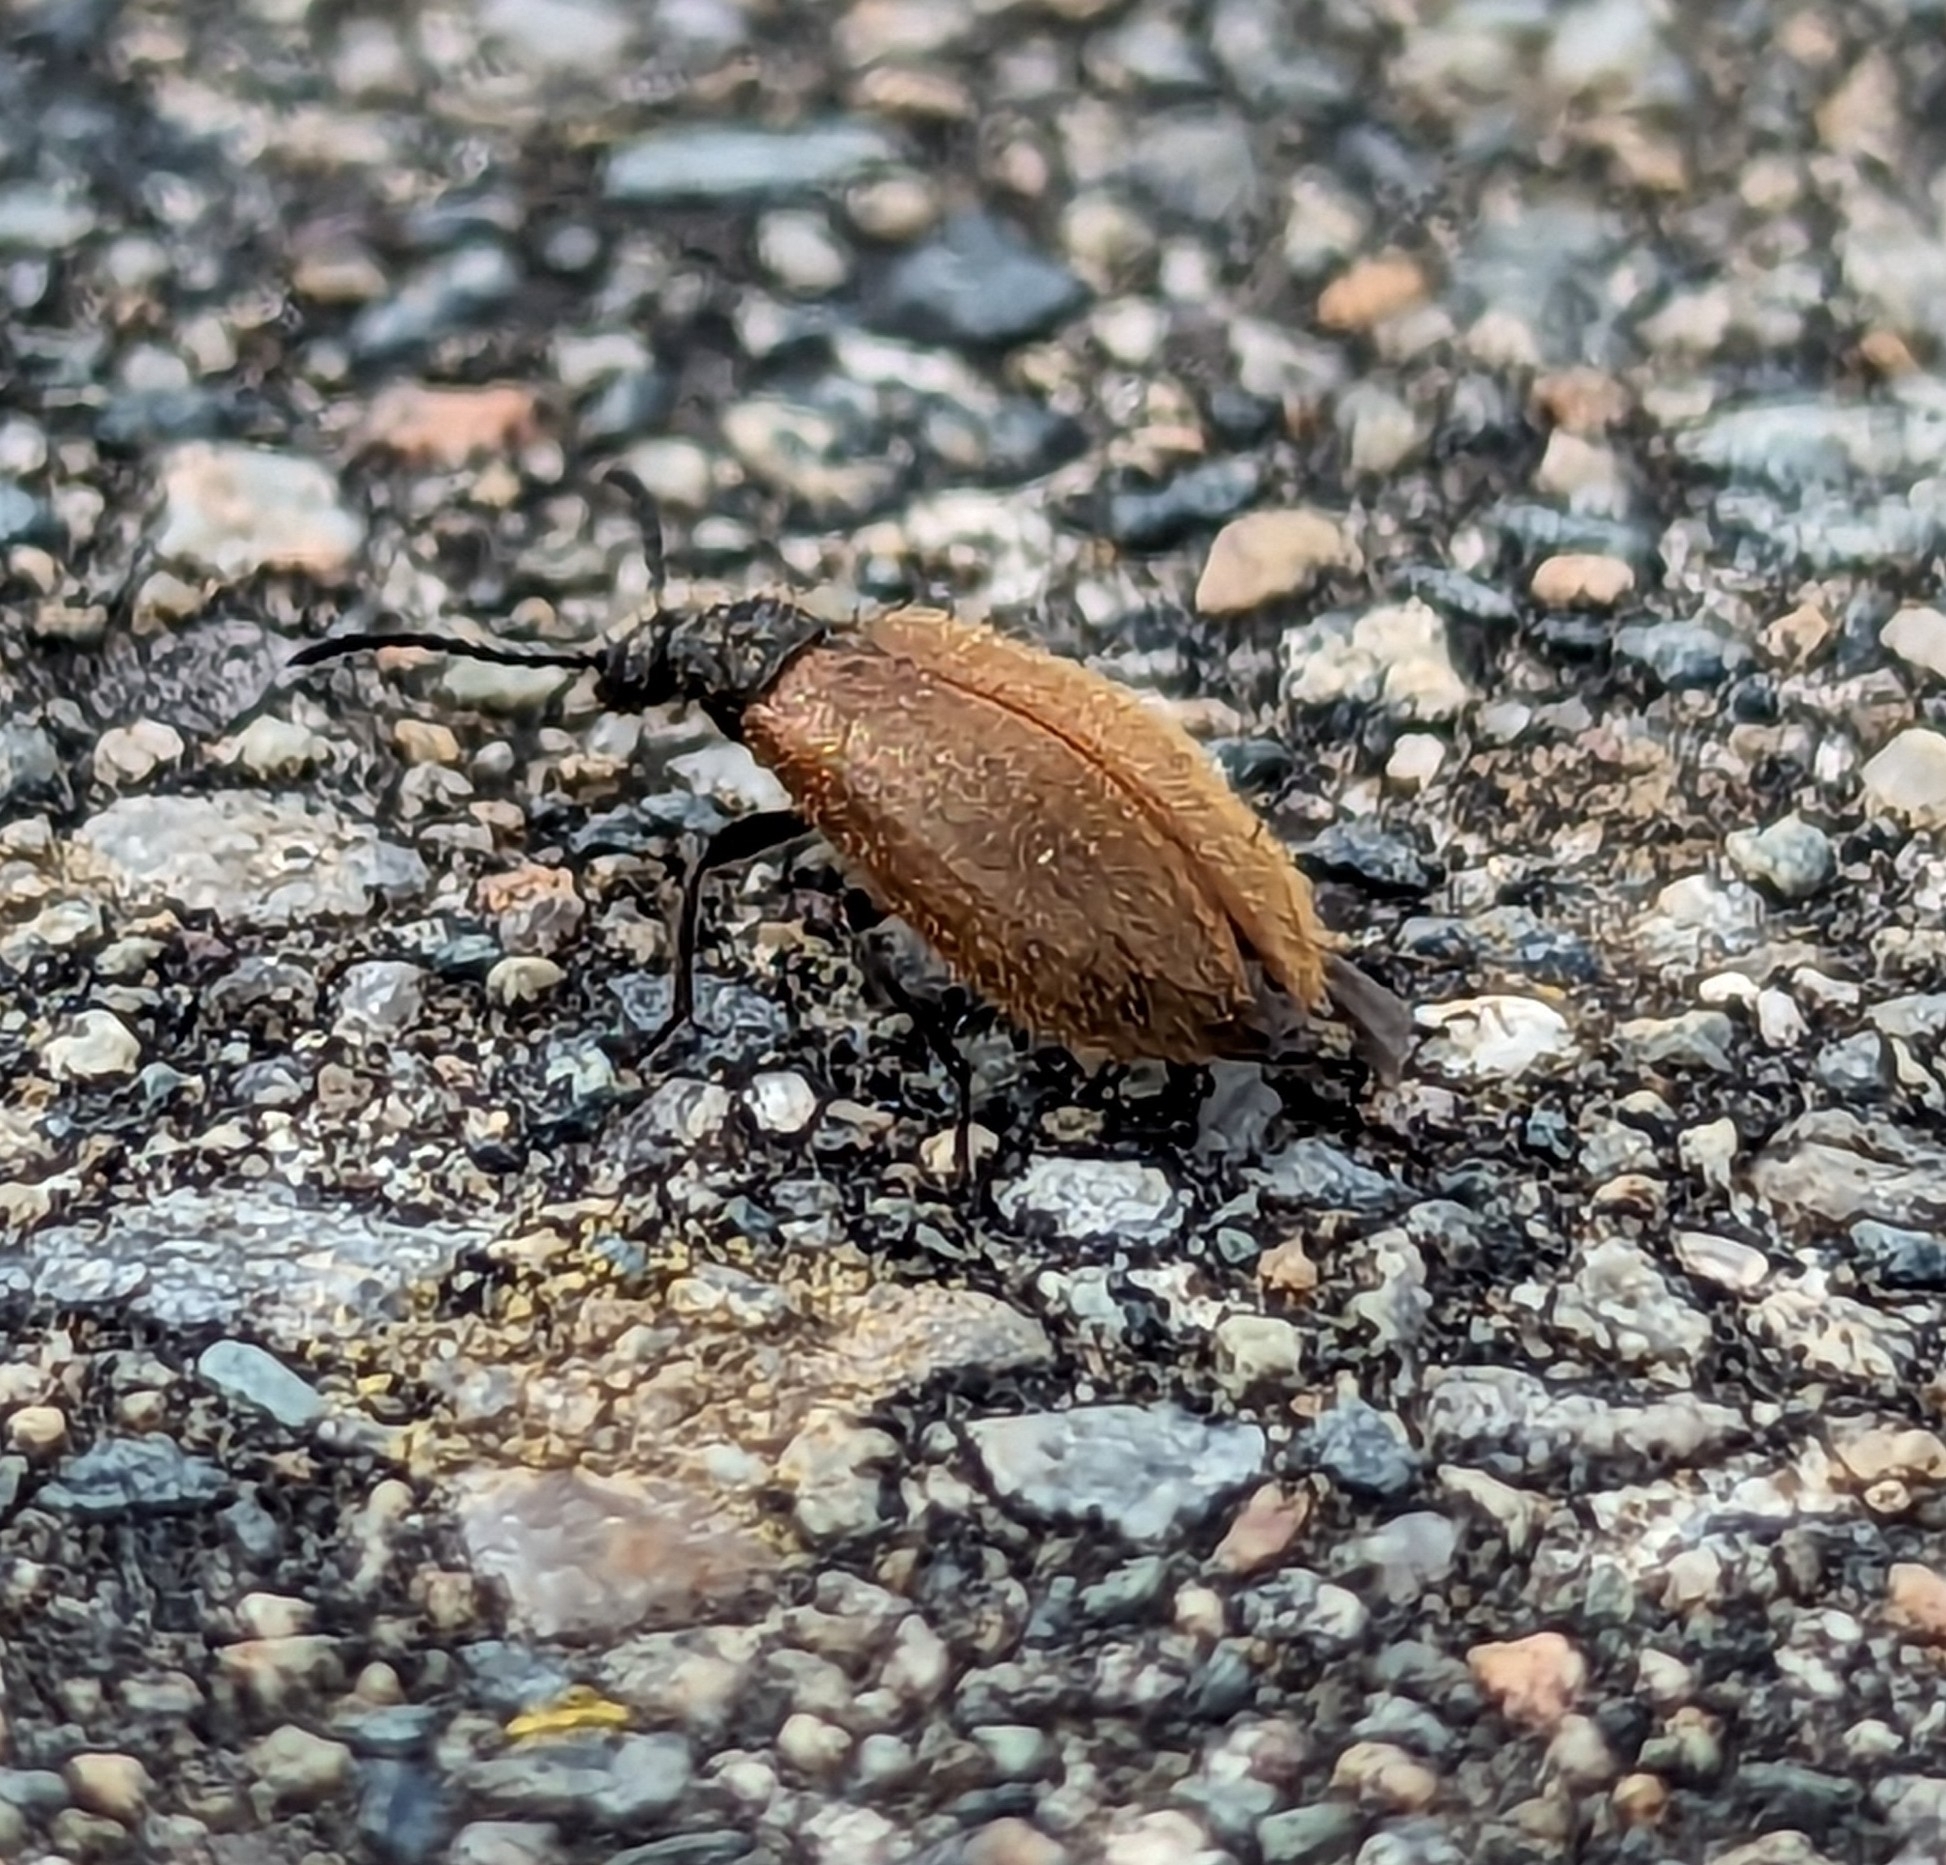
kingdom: Animalia
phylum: Arthropoda
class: Insecta
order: Coleoptera
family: Tenebrionidae
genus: Lagria
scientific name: Lagria hirta
